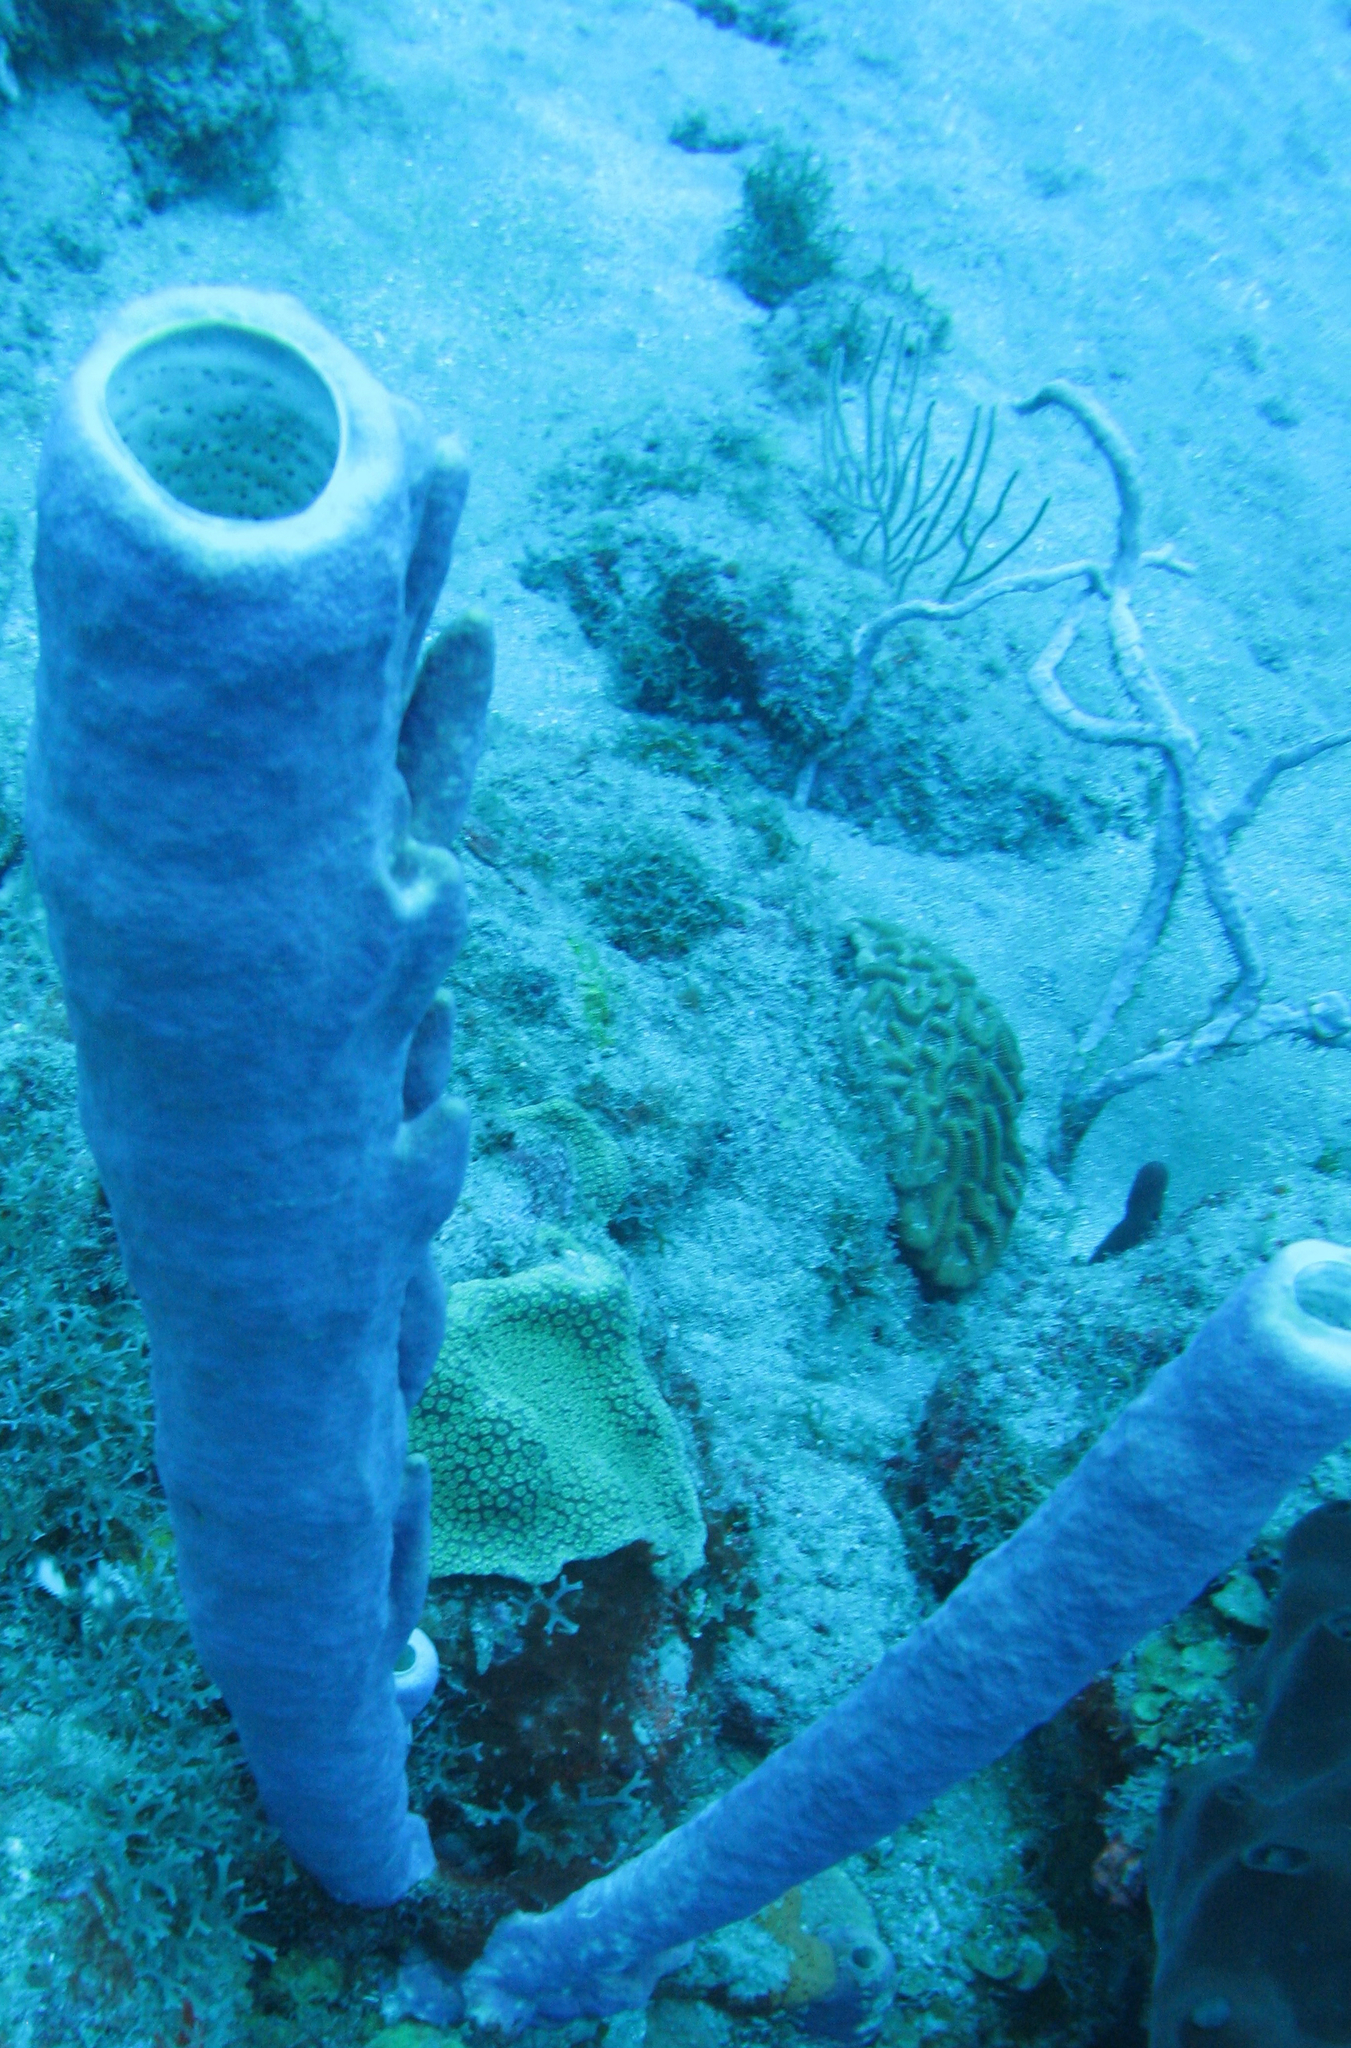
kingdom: Animalia
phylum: Porifera
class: Demospongiae
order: Verongiida
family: Aplysinidae
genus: Aplysina
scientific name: Aplysina archeri
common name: Stove-pipe sponge
